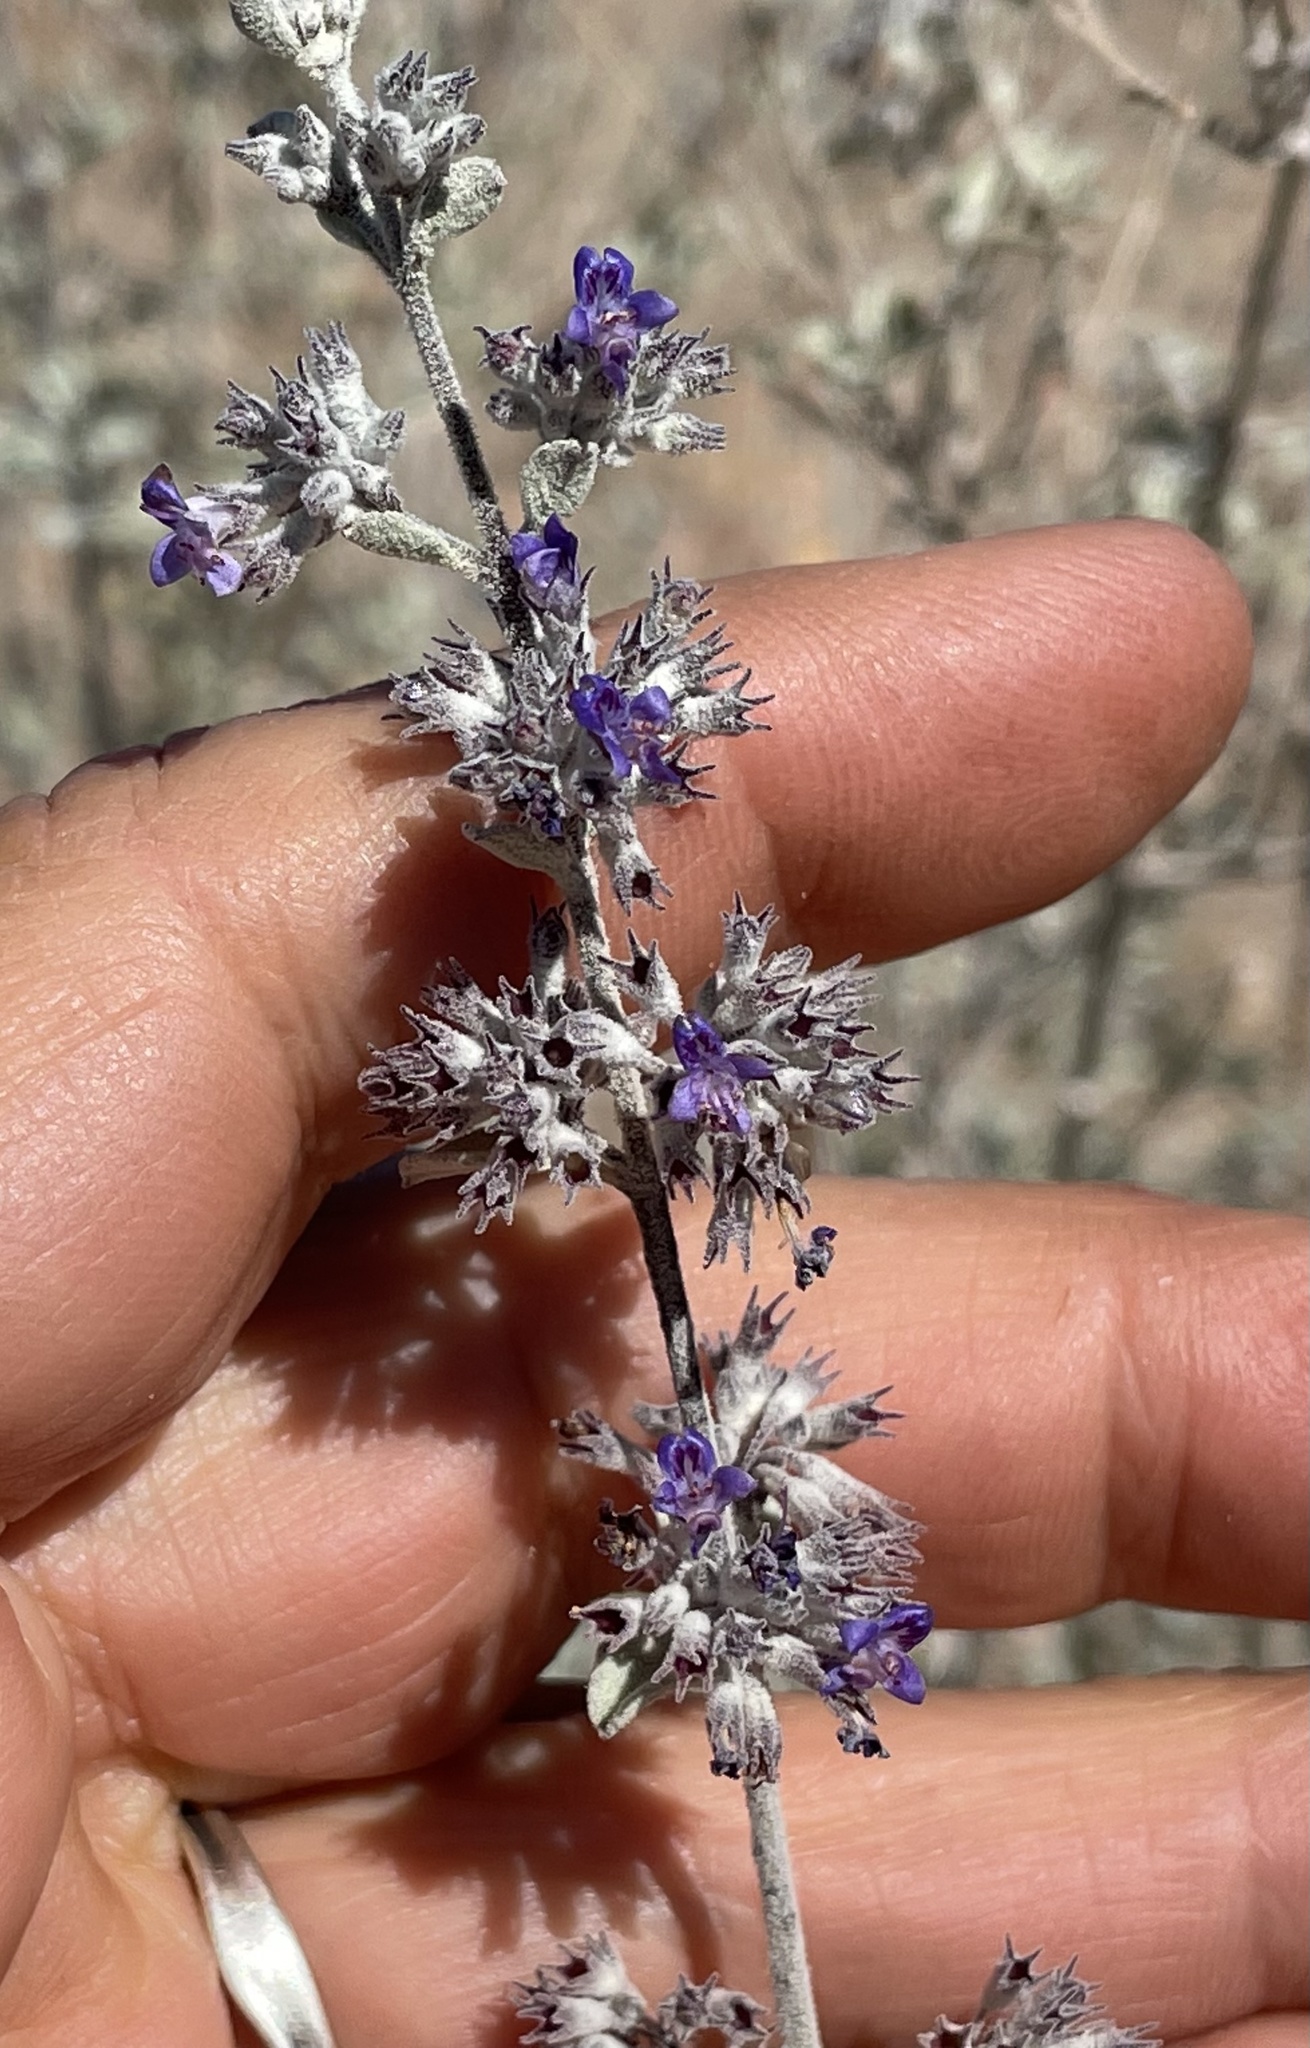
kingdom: Plantae
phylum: Tracheophyta
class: Magnoliopsida
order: Lamiales
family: Lamiaceae
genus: Condea
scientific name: Condea emoryi
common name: Chia
